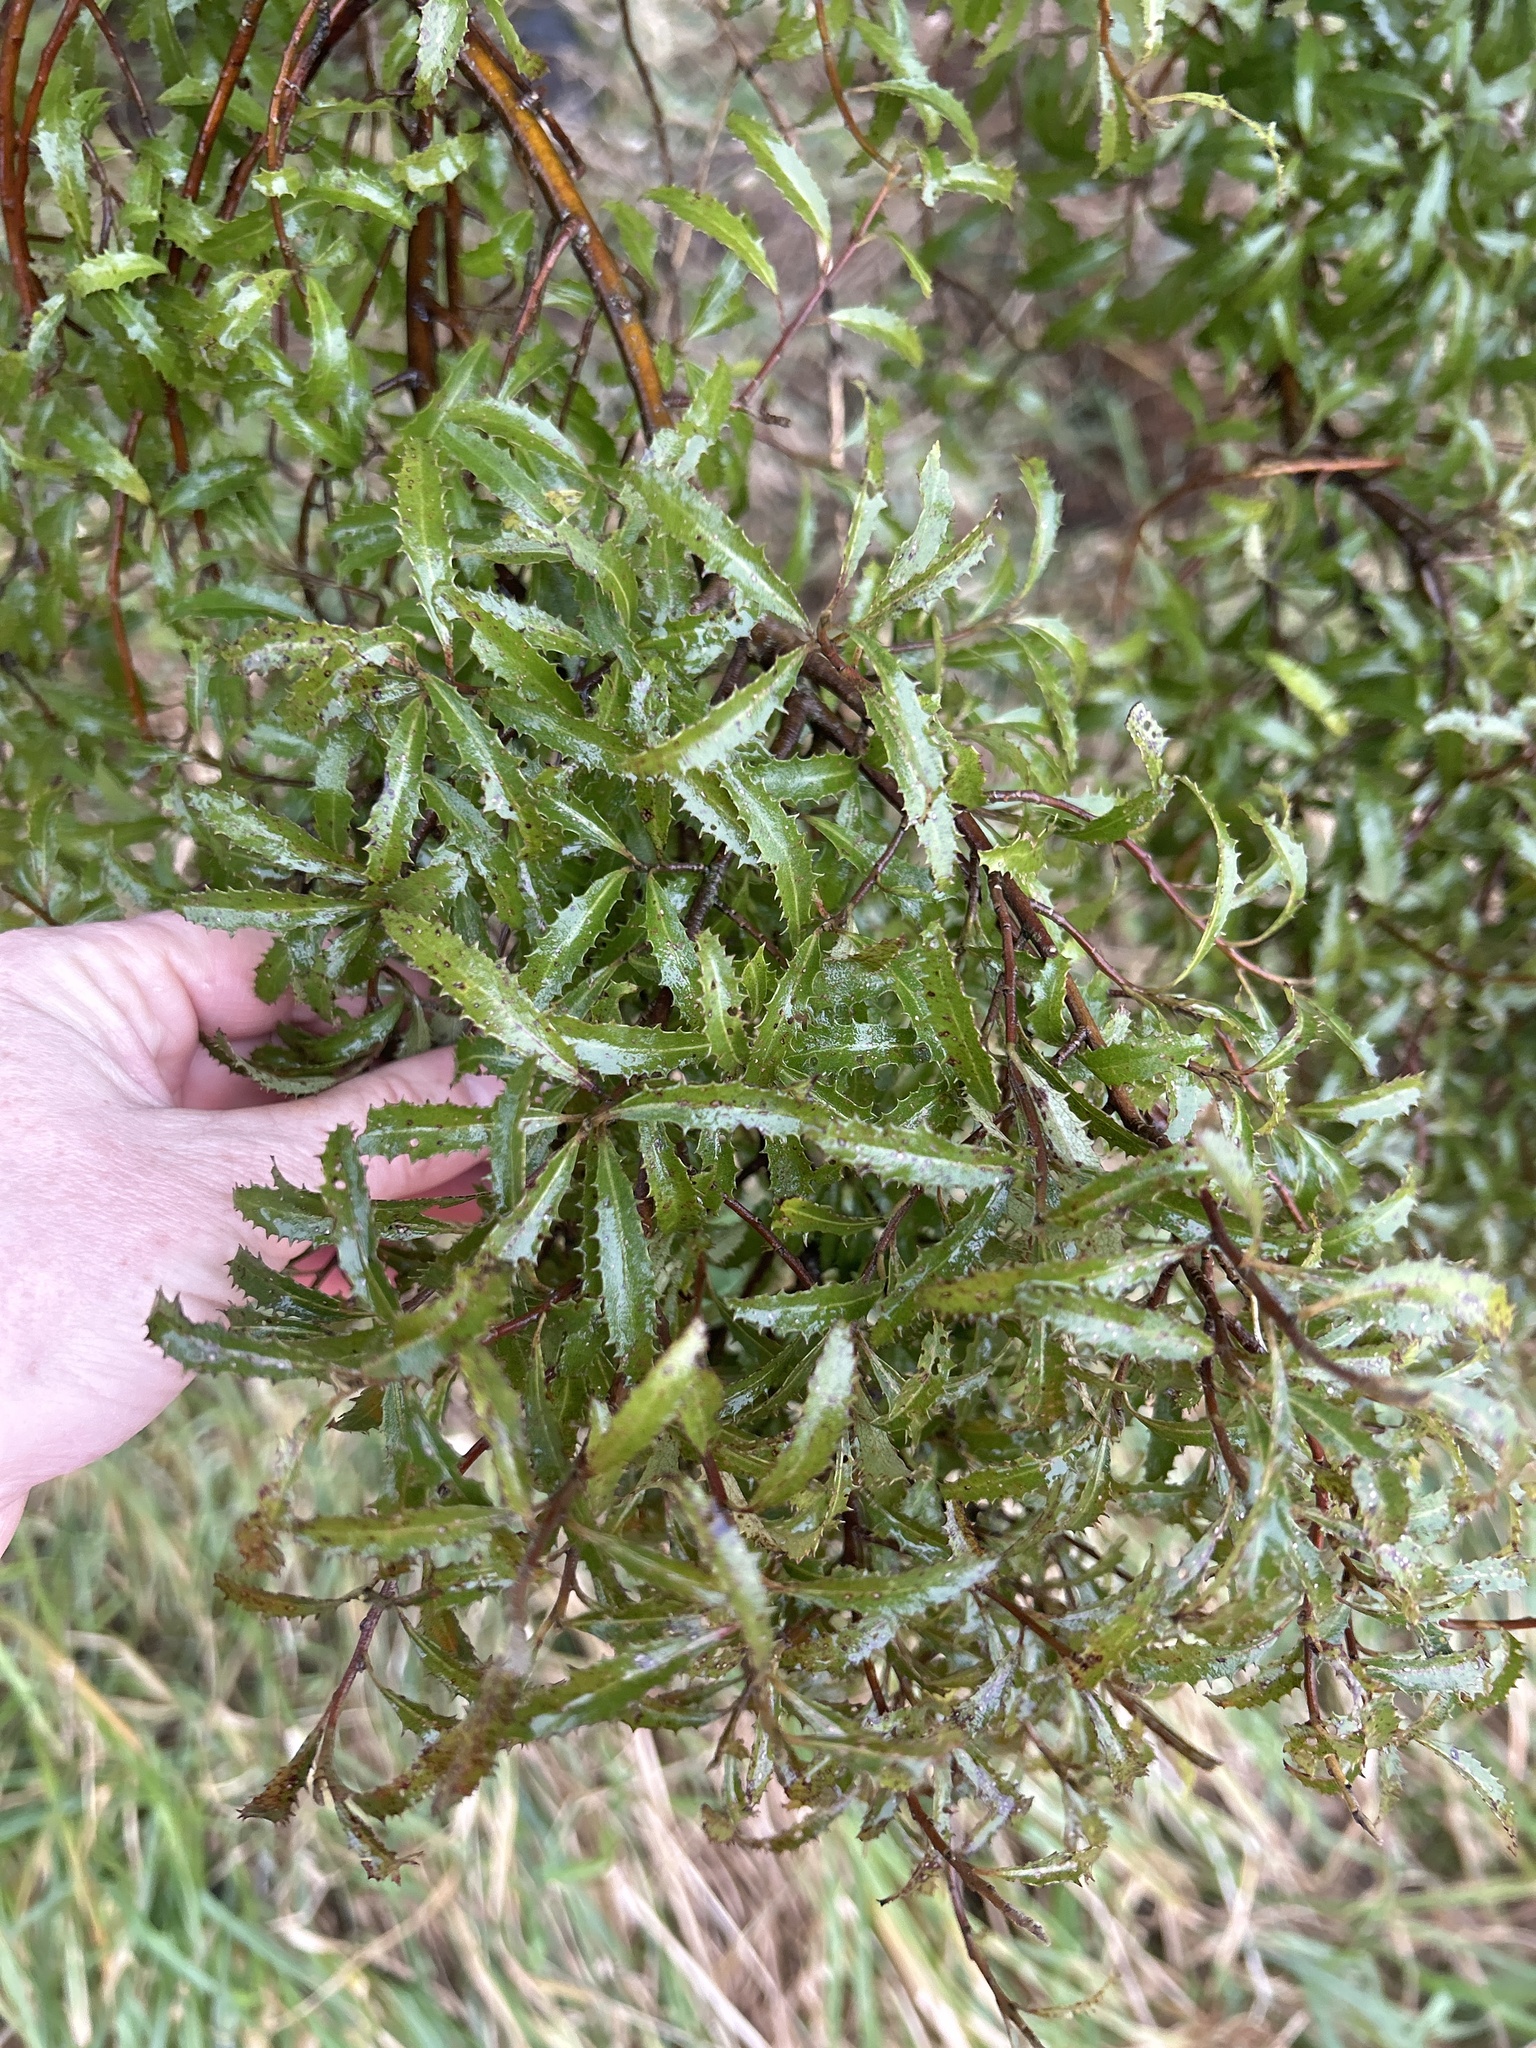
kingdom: Plantae
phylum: Tracheophyta
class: Magnoliopsida
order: Malvales
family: Malvaceae
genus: Hoheria
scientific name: Hoheria angustifolia
